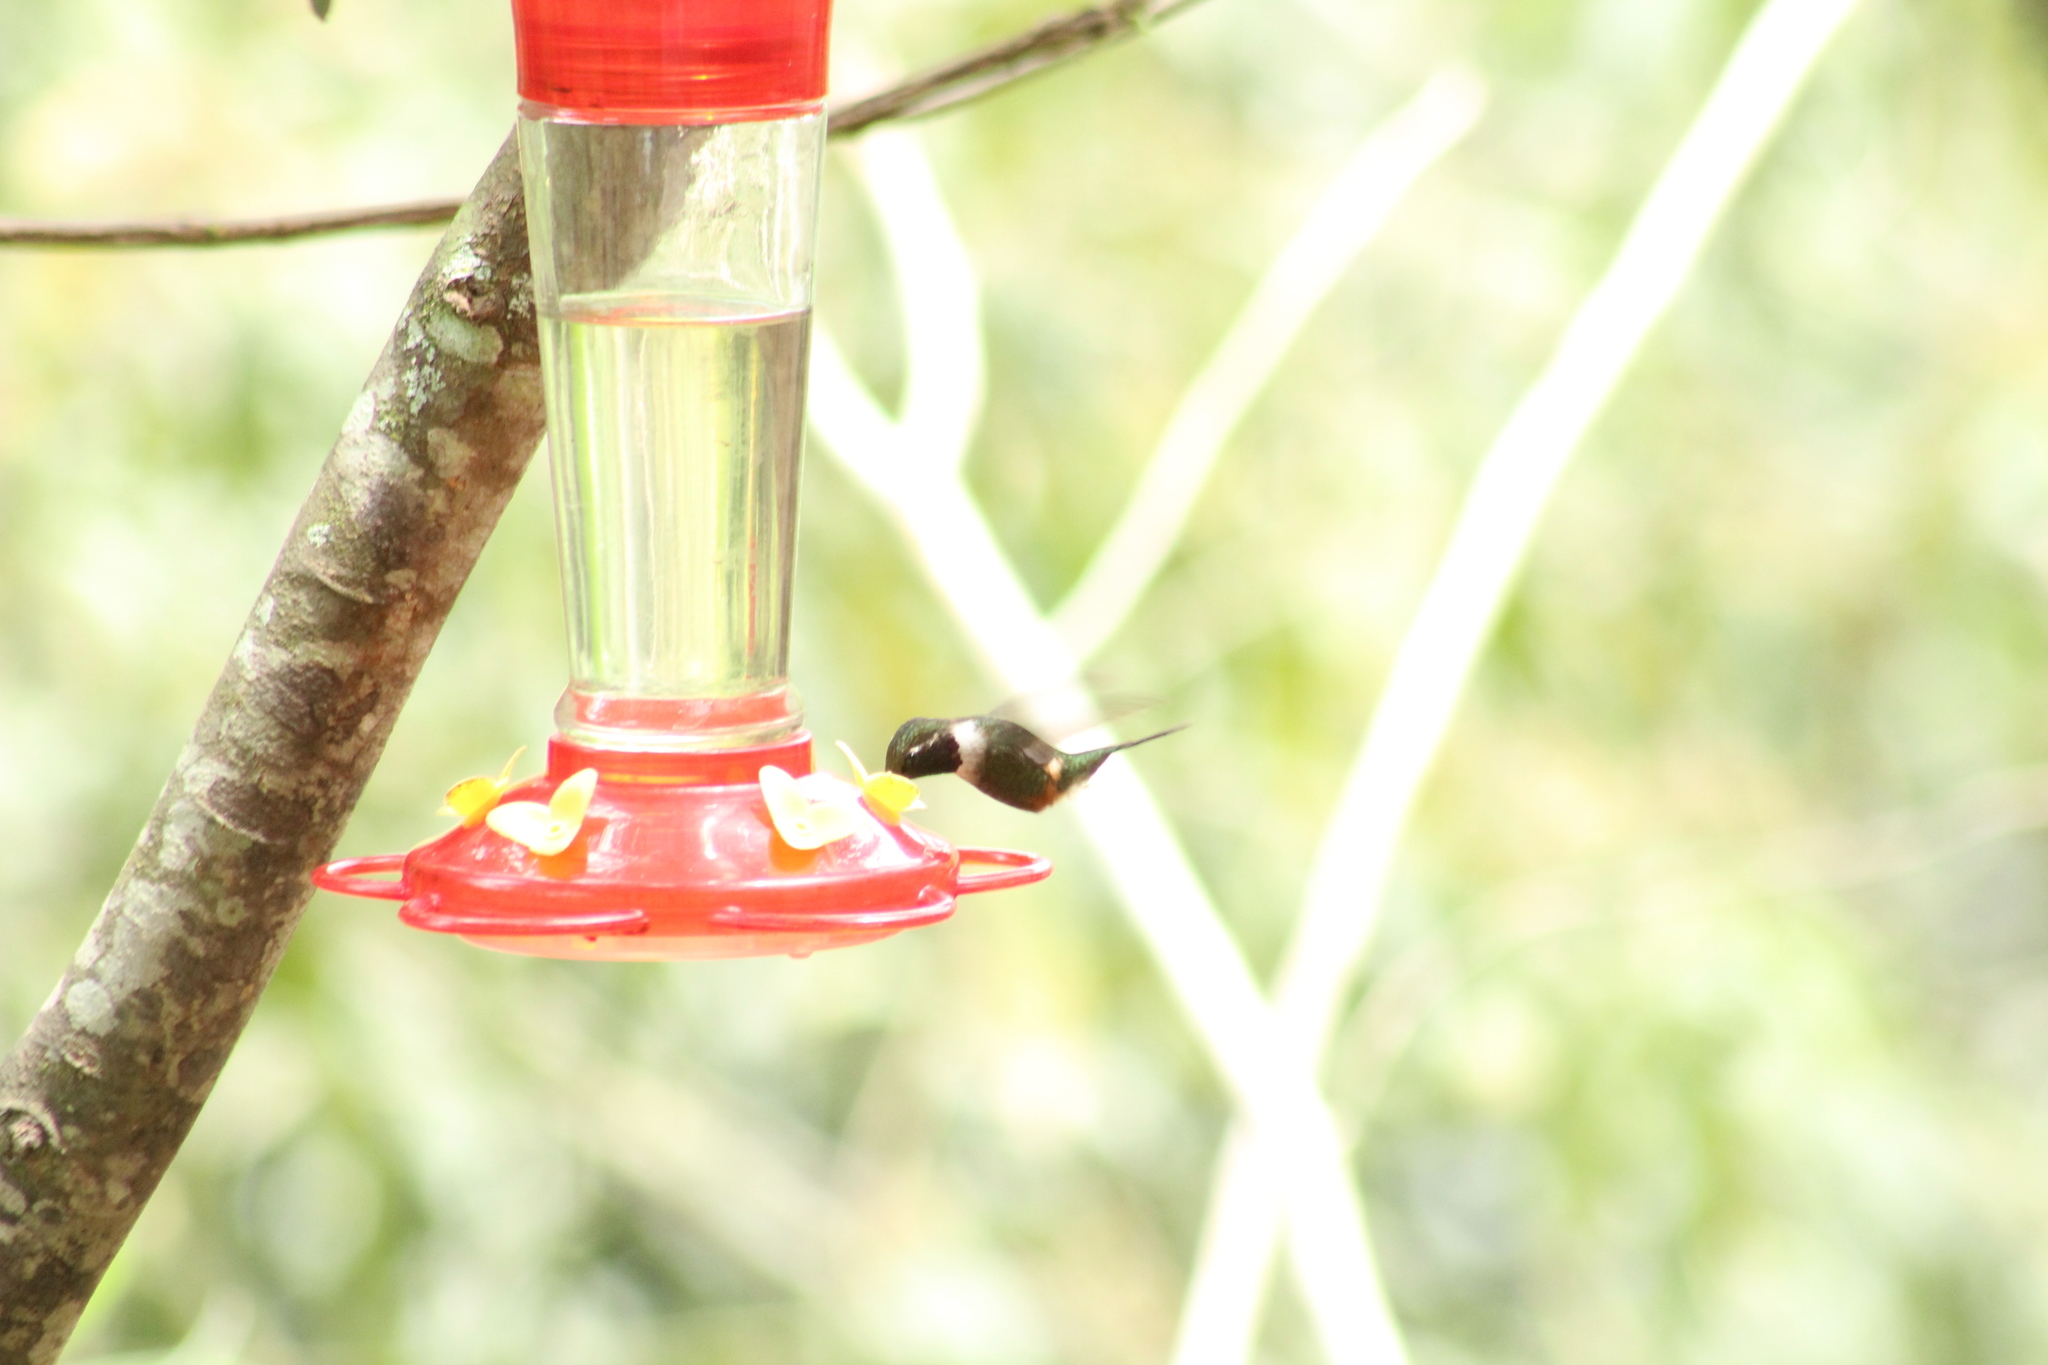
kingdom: Animalia
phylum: Chordata
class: Aves
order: Apodiformes
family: Trochilidae
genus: Calliphlox
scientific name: Calliphlox mitchellii
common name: Purple-throated woodstar
